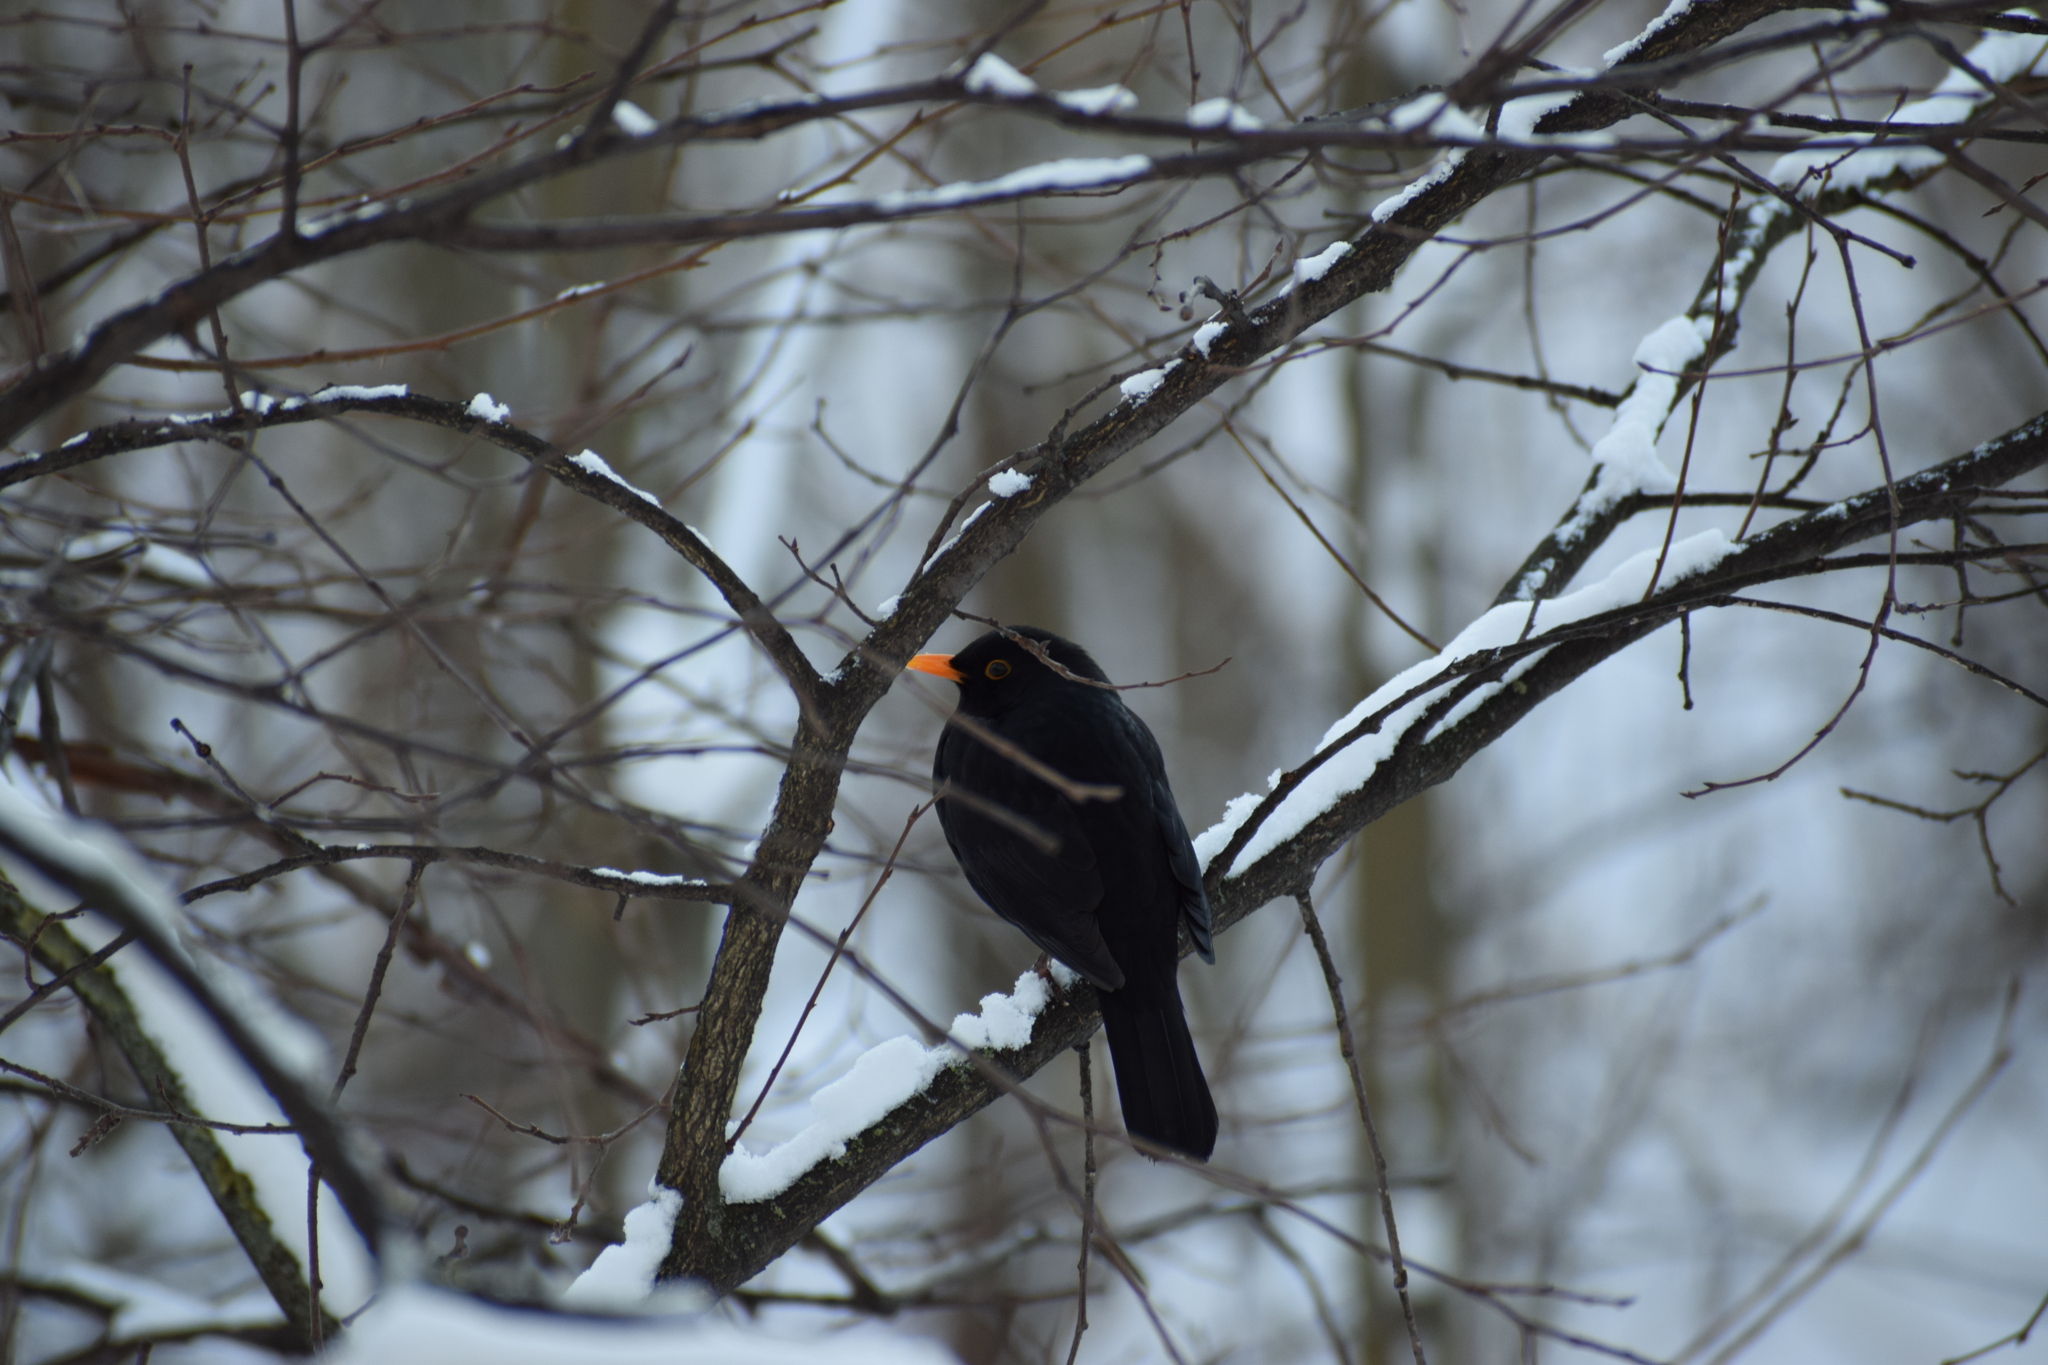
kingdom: Animalia
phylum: Chordata
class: Aves
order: Passeriformes
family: Turdidae
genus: Turdus
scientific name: Turdus merula
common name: Common blackbird
